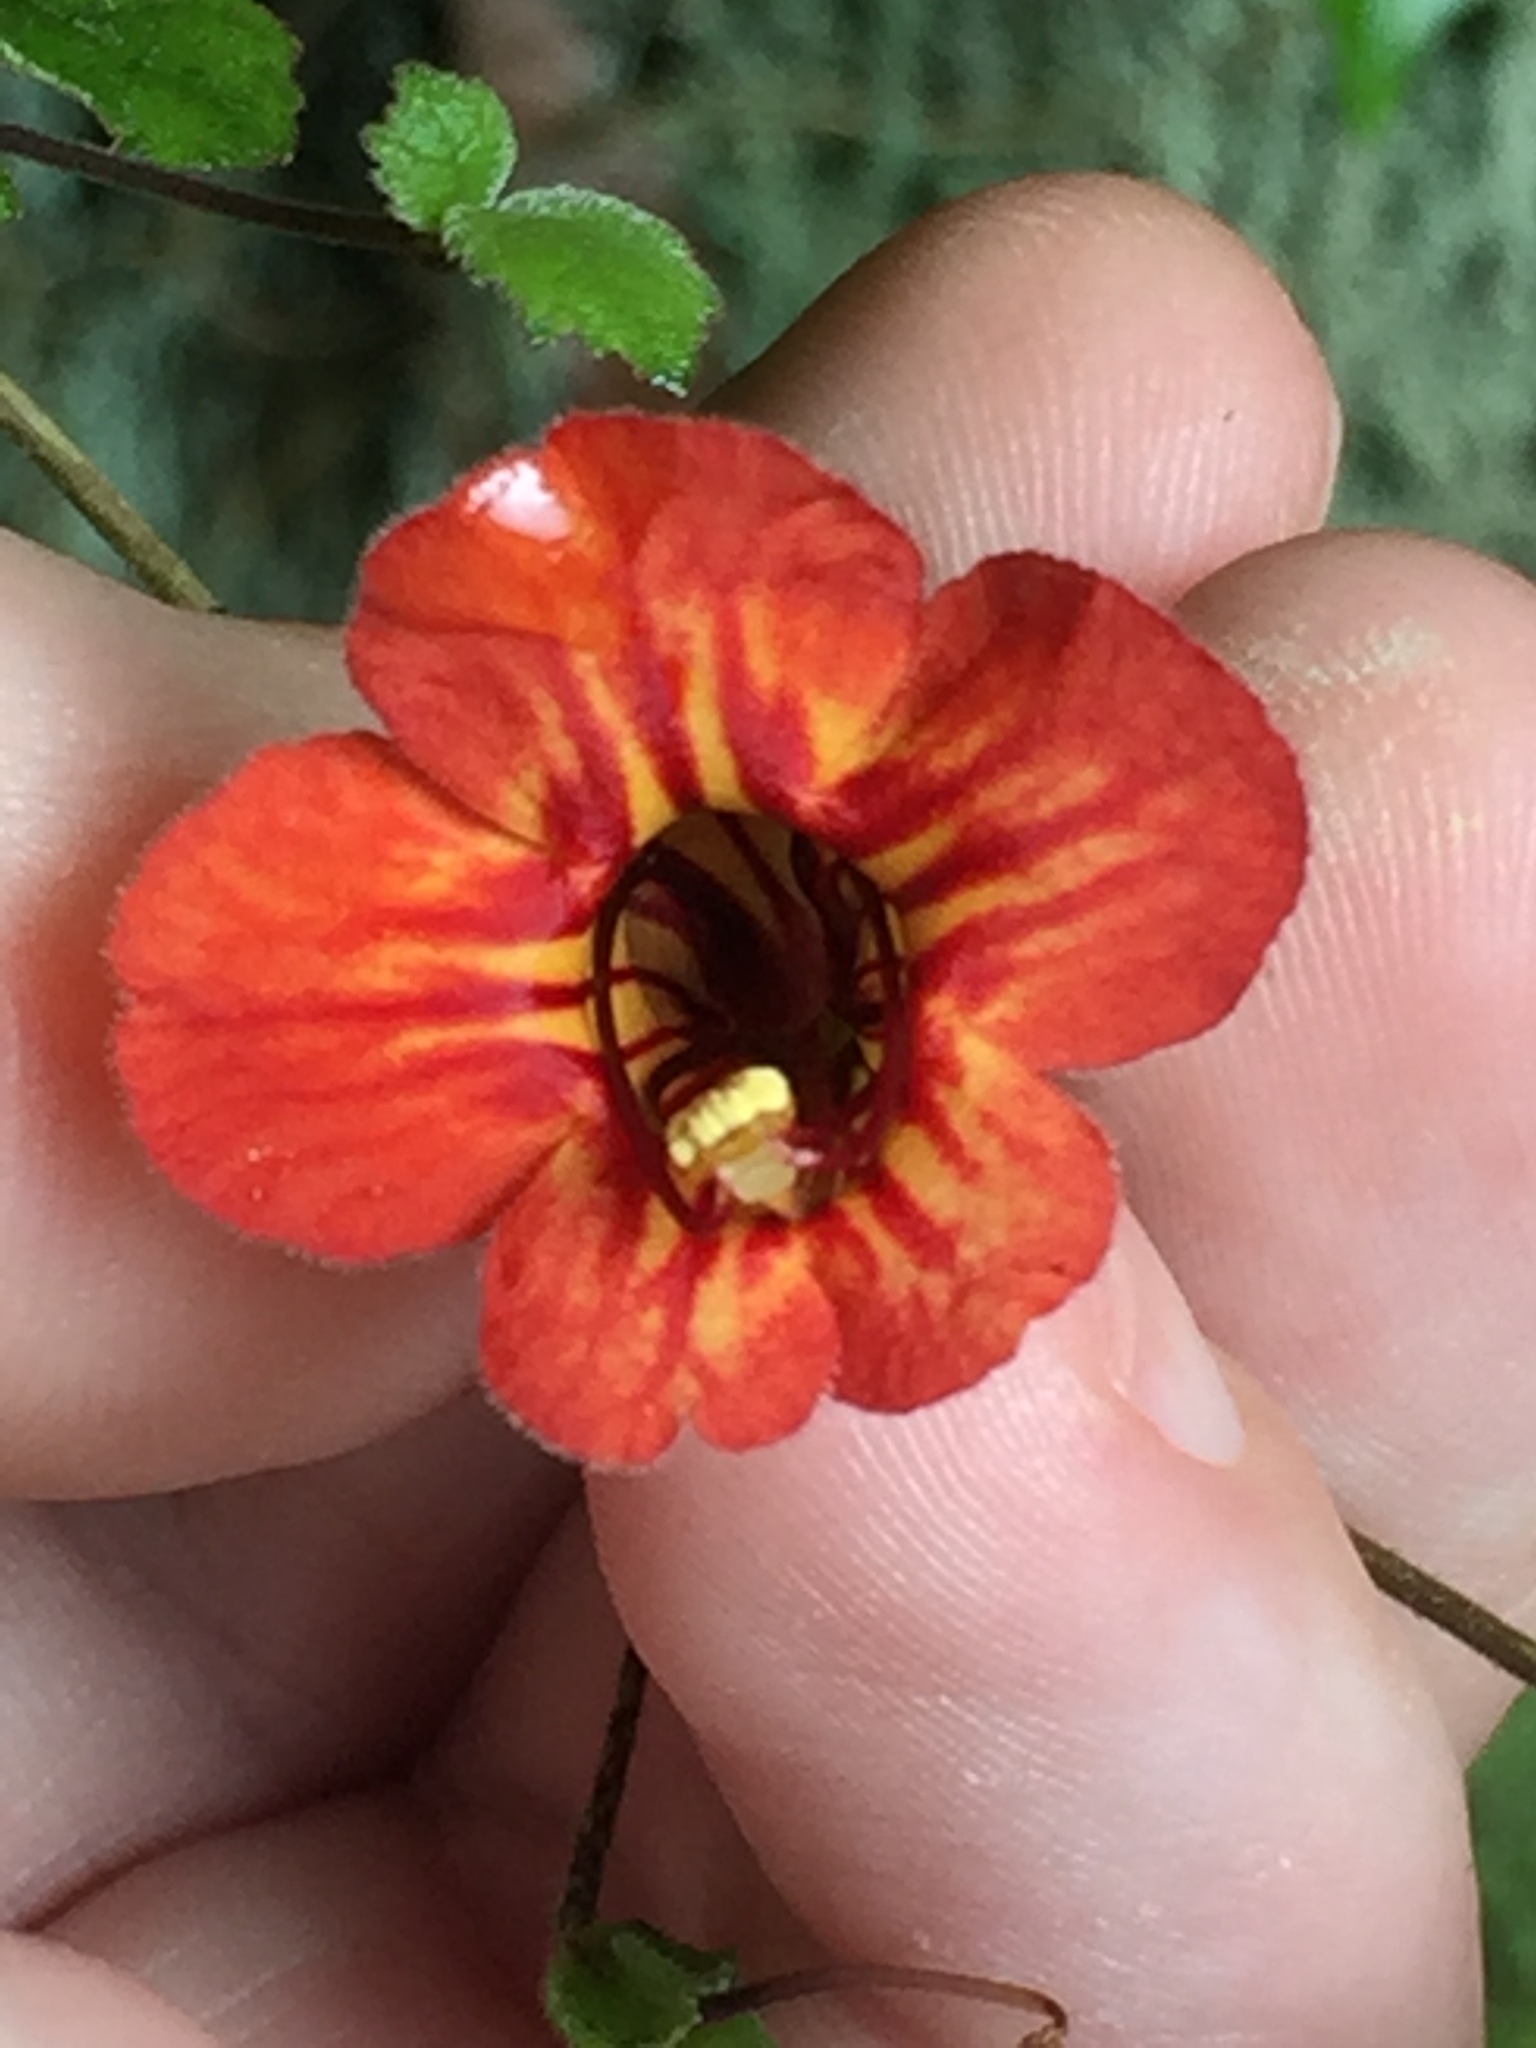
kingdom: Plantae
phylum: Tracheophyta
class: Magnoliopsida
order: Lamiales
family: Gesneriaceae
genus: Rhabdothamnus
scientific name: Rhabdothamnus solandri
